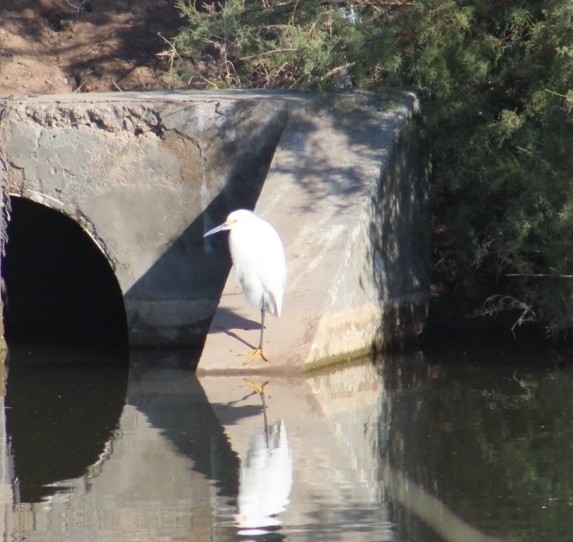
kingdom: Animalia
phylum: Chordata
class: Aves
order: Pelecaniformes
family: Ardeidae
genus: Egretta
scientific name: Egretta thula
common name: Snowy egret
